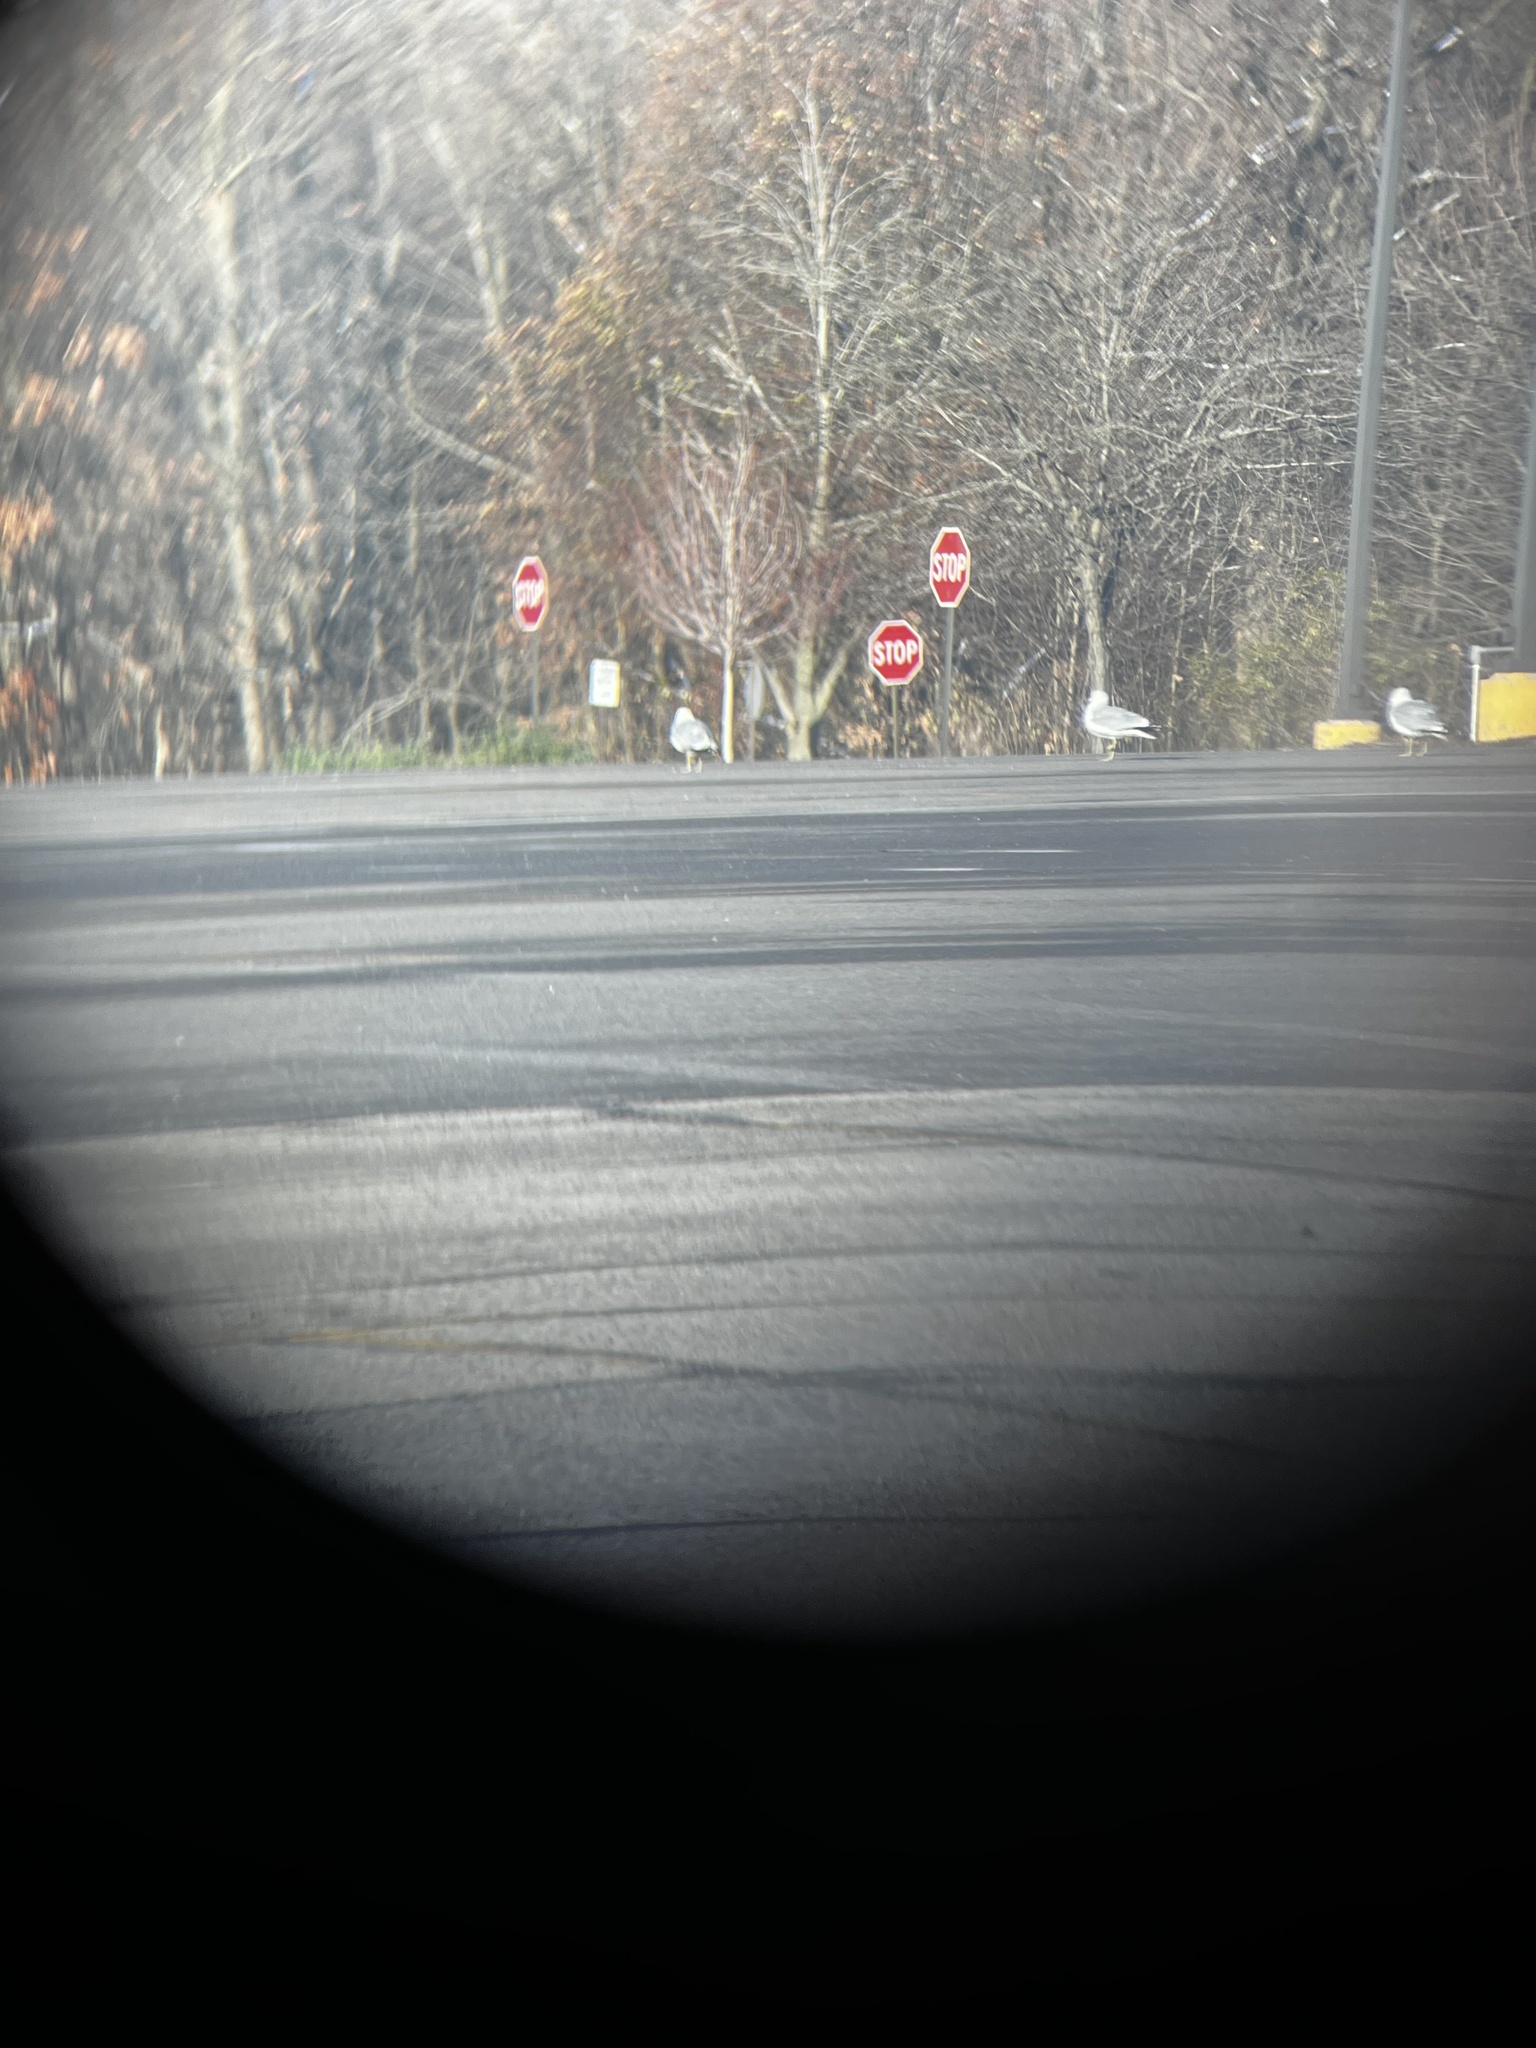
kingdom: Animalia
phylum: Chordata
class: Aves
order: Charadriiformes
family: Laridae
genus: Larus
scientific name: Larus delawarensis
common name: Ring-billed gull
